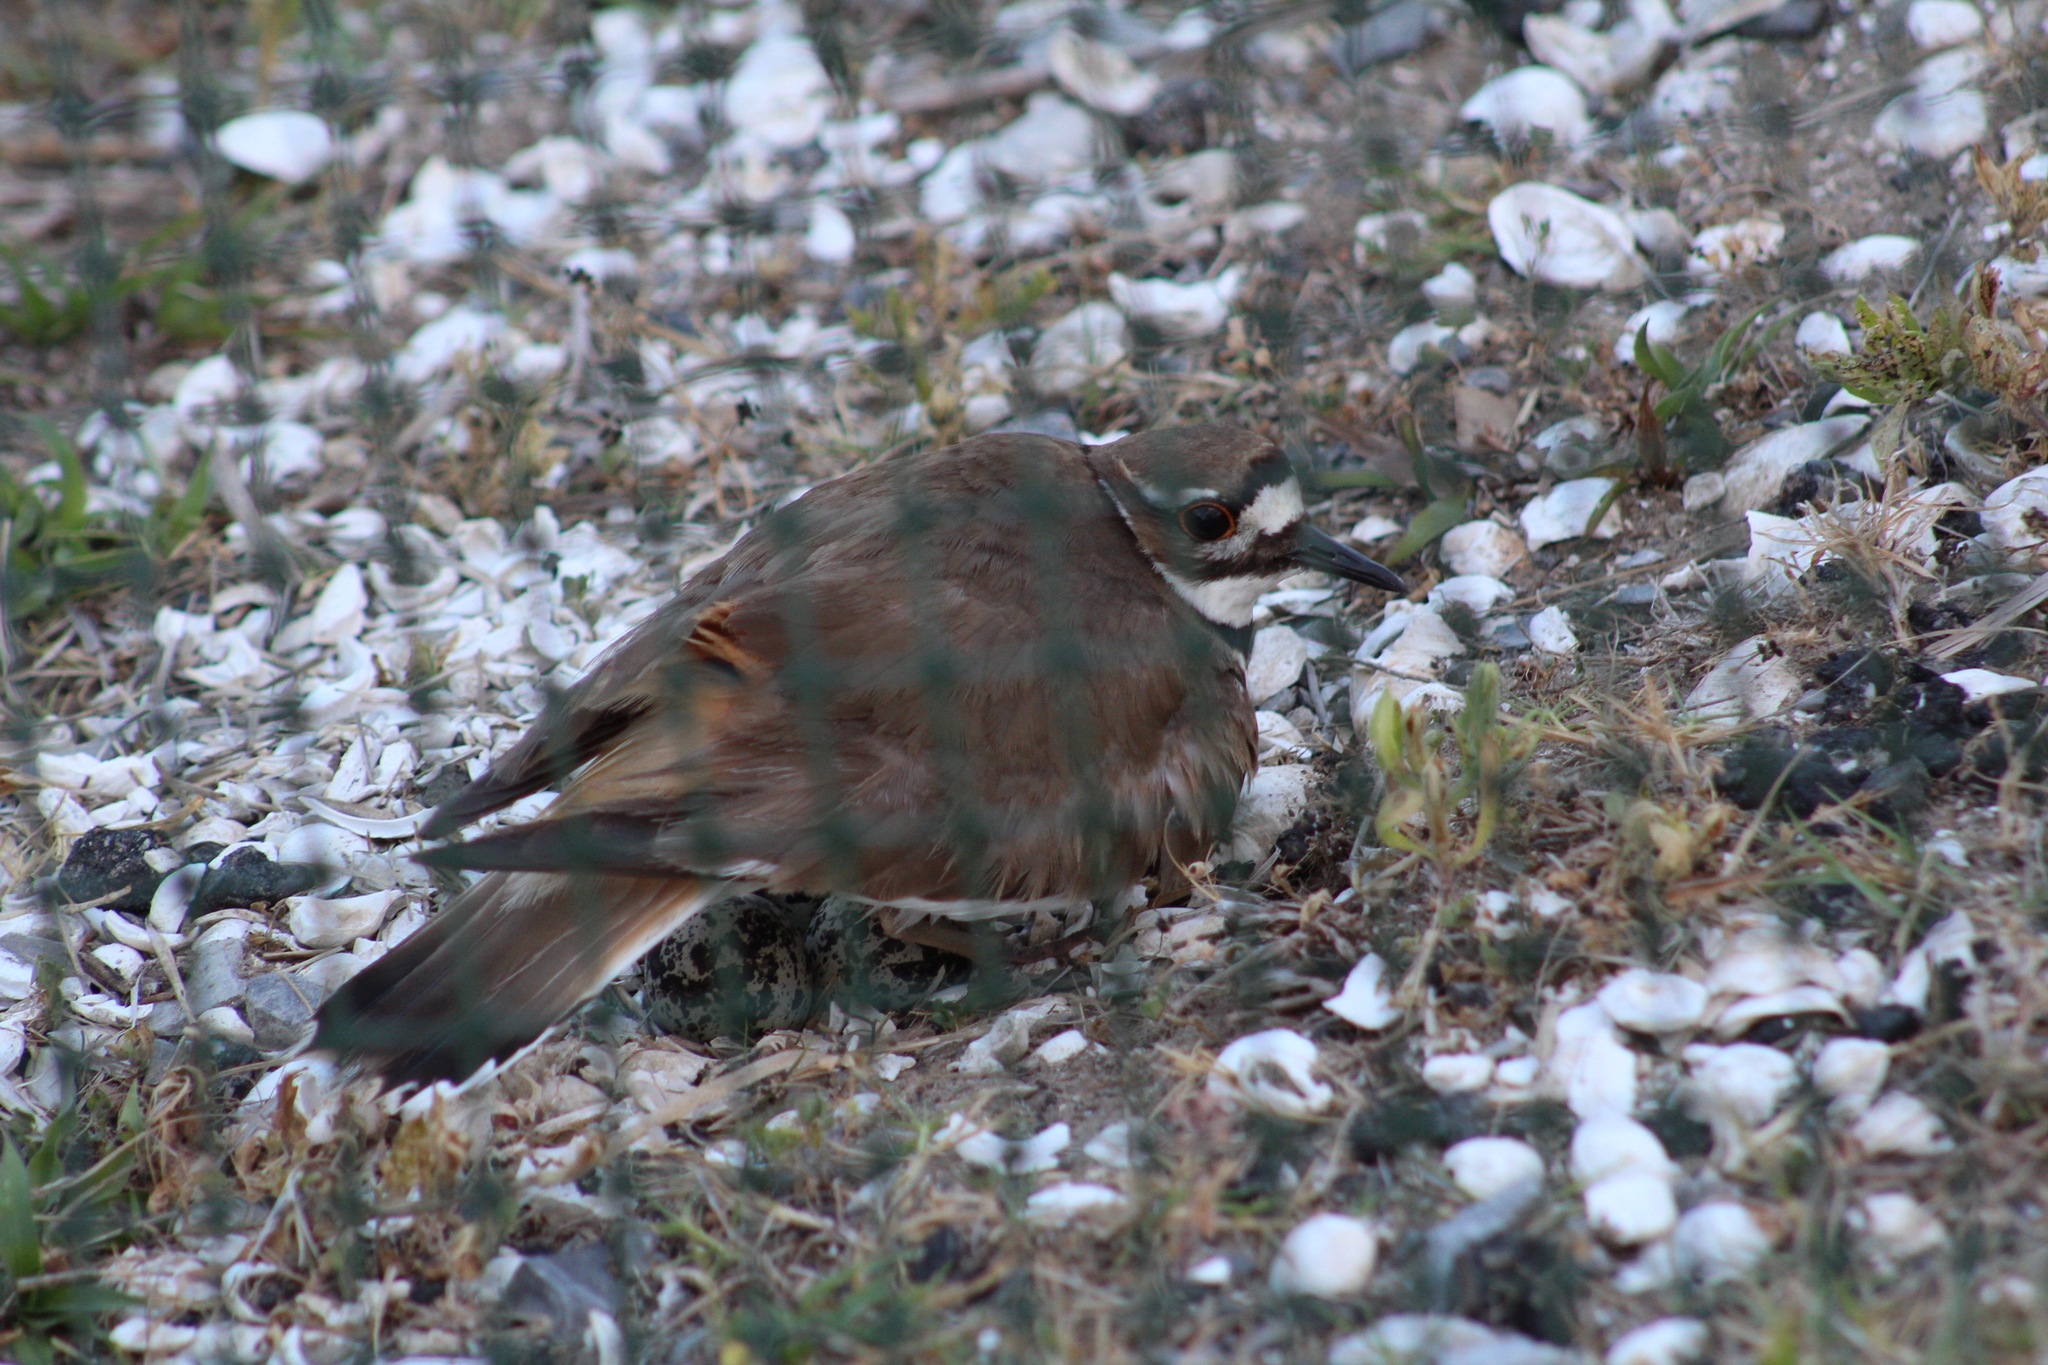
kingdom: Animalia
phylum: Chordata
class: Aves
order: Charadriiformes
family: Charadriidae
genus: Charadrius
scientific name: Charadrius vociferus
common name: Killdeer
